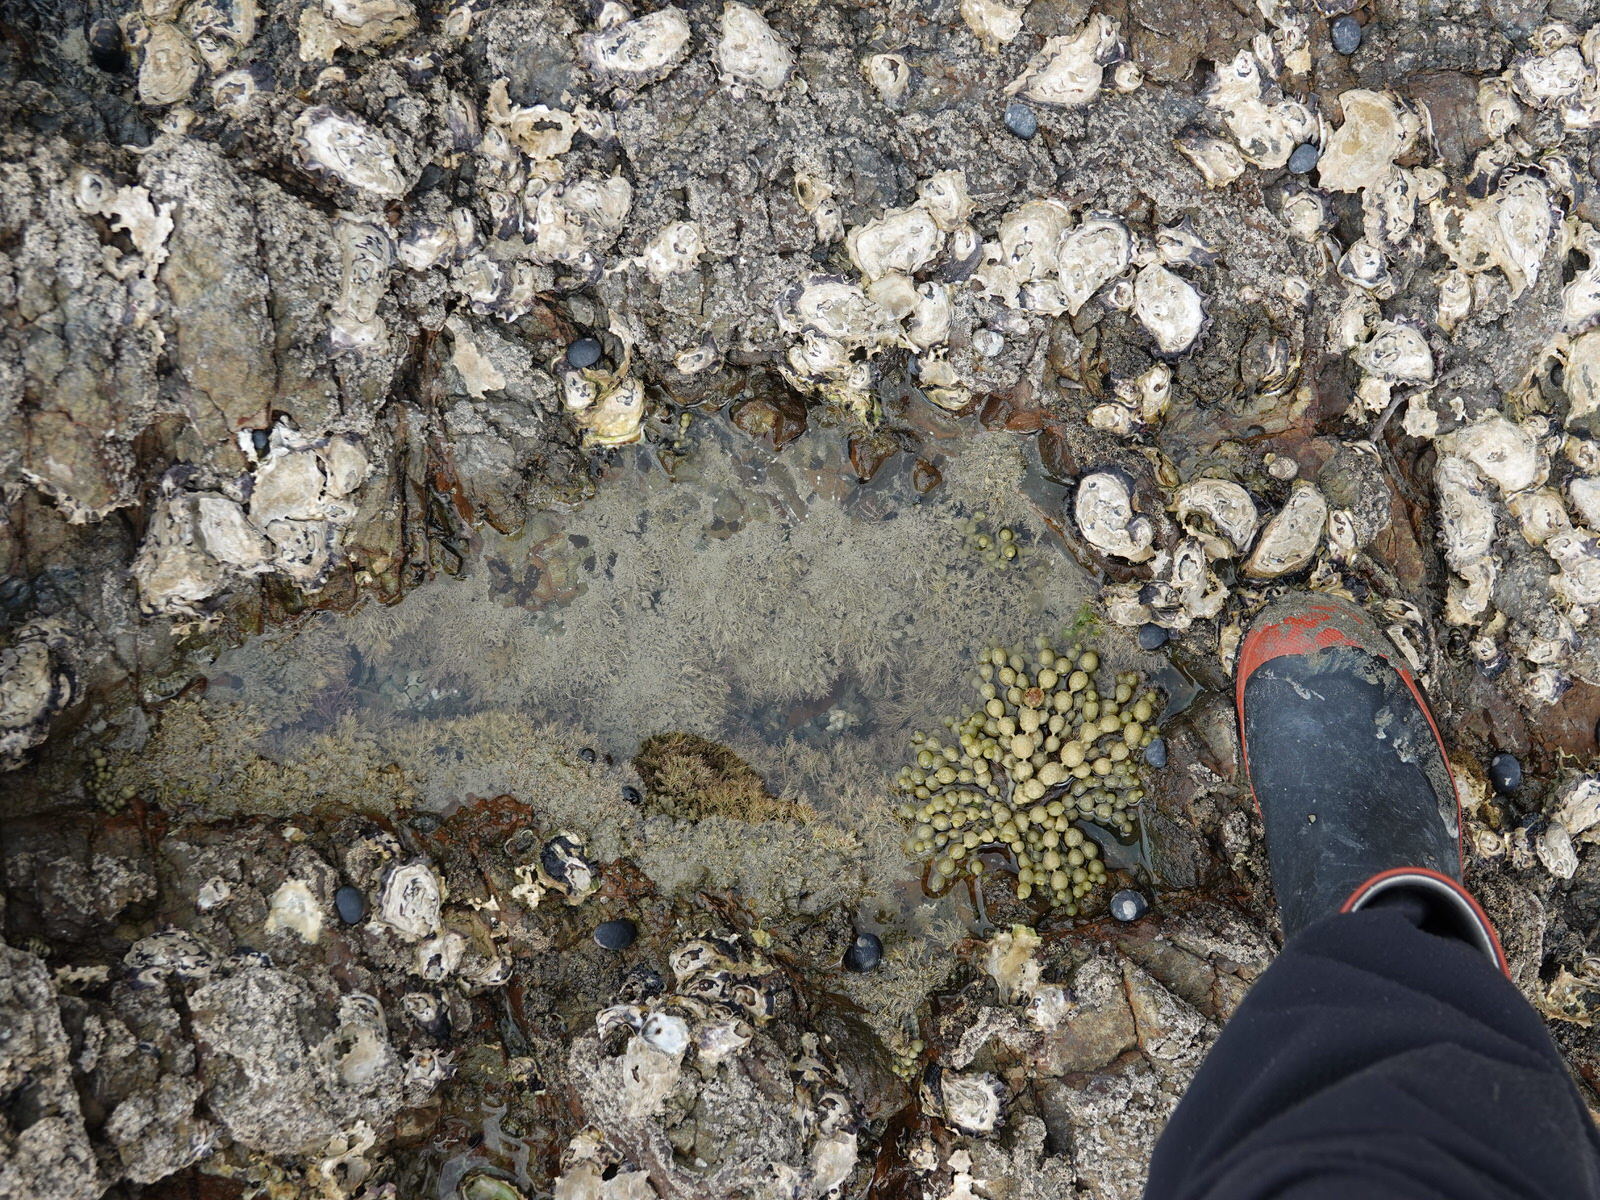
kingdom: Animalia
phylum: Chordata
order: Perciformes
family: Tripterygiidae
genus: Bellapiscis
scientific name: Bellapiscis medius
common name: Twister
